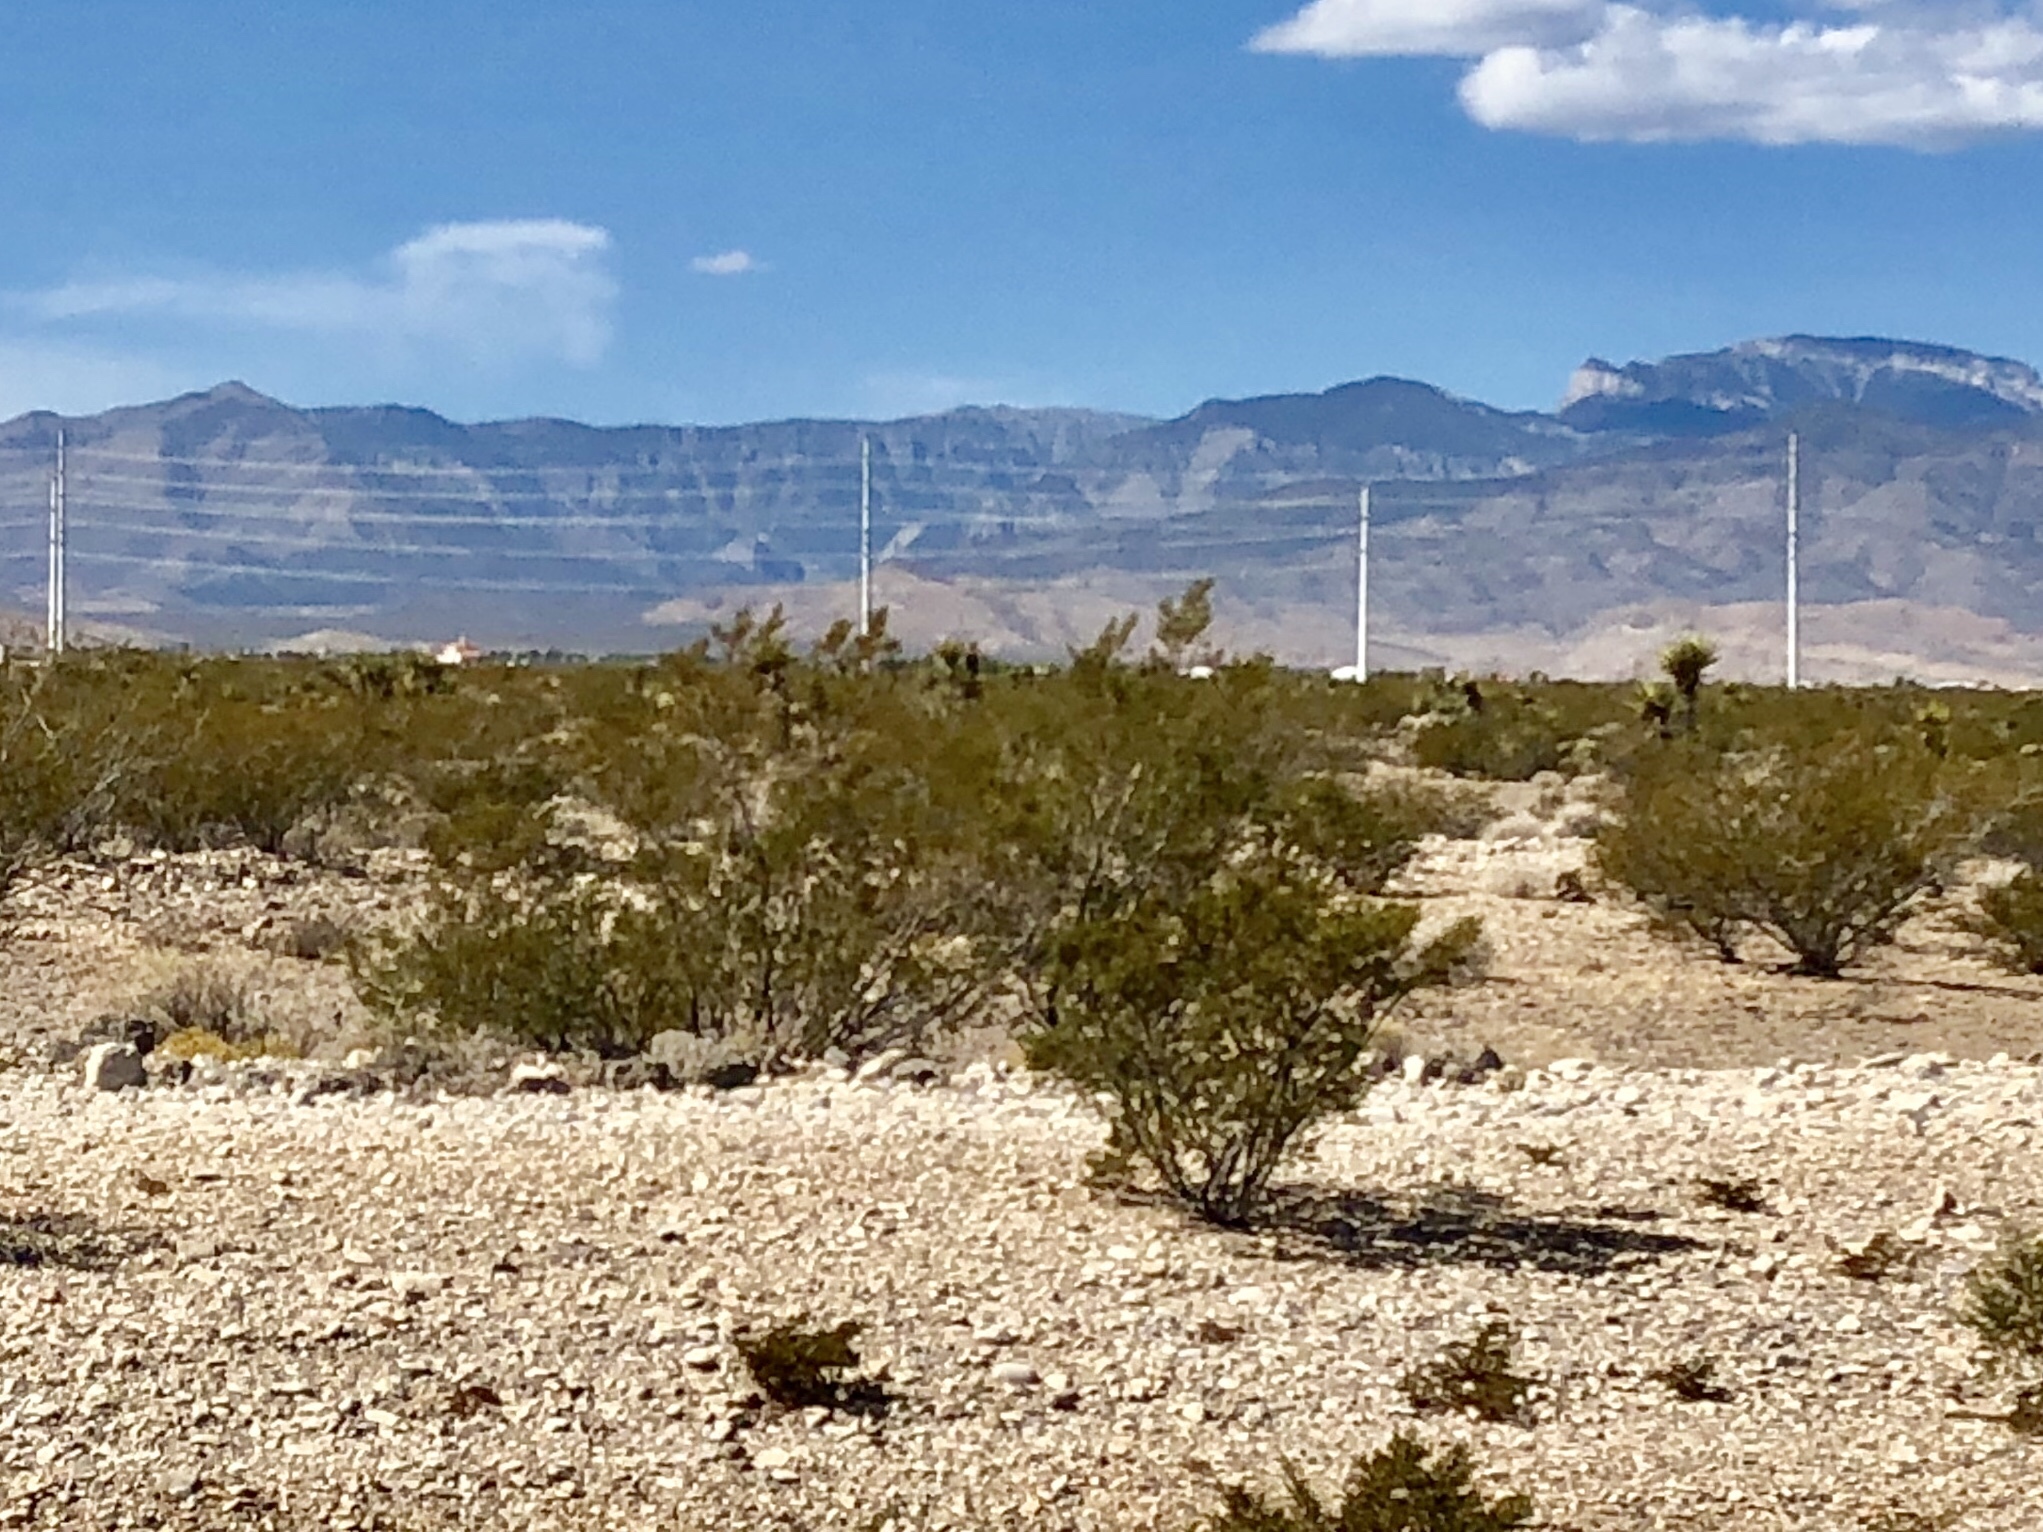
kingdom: Plantae
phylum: Tracheophyta
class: Magnoliopsida
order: Zygophyllales
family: Zygophyllaceae
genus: Larrea
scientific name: Larrea tridentata
